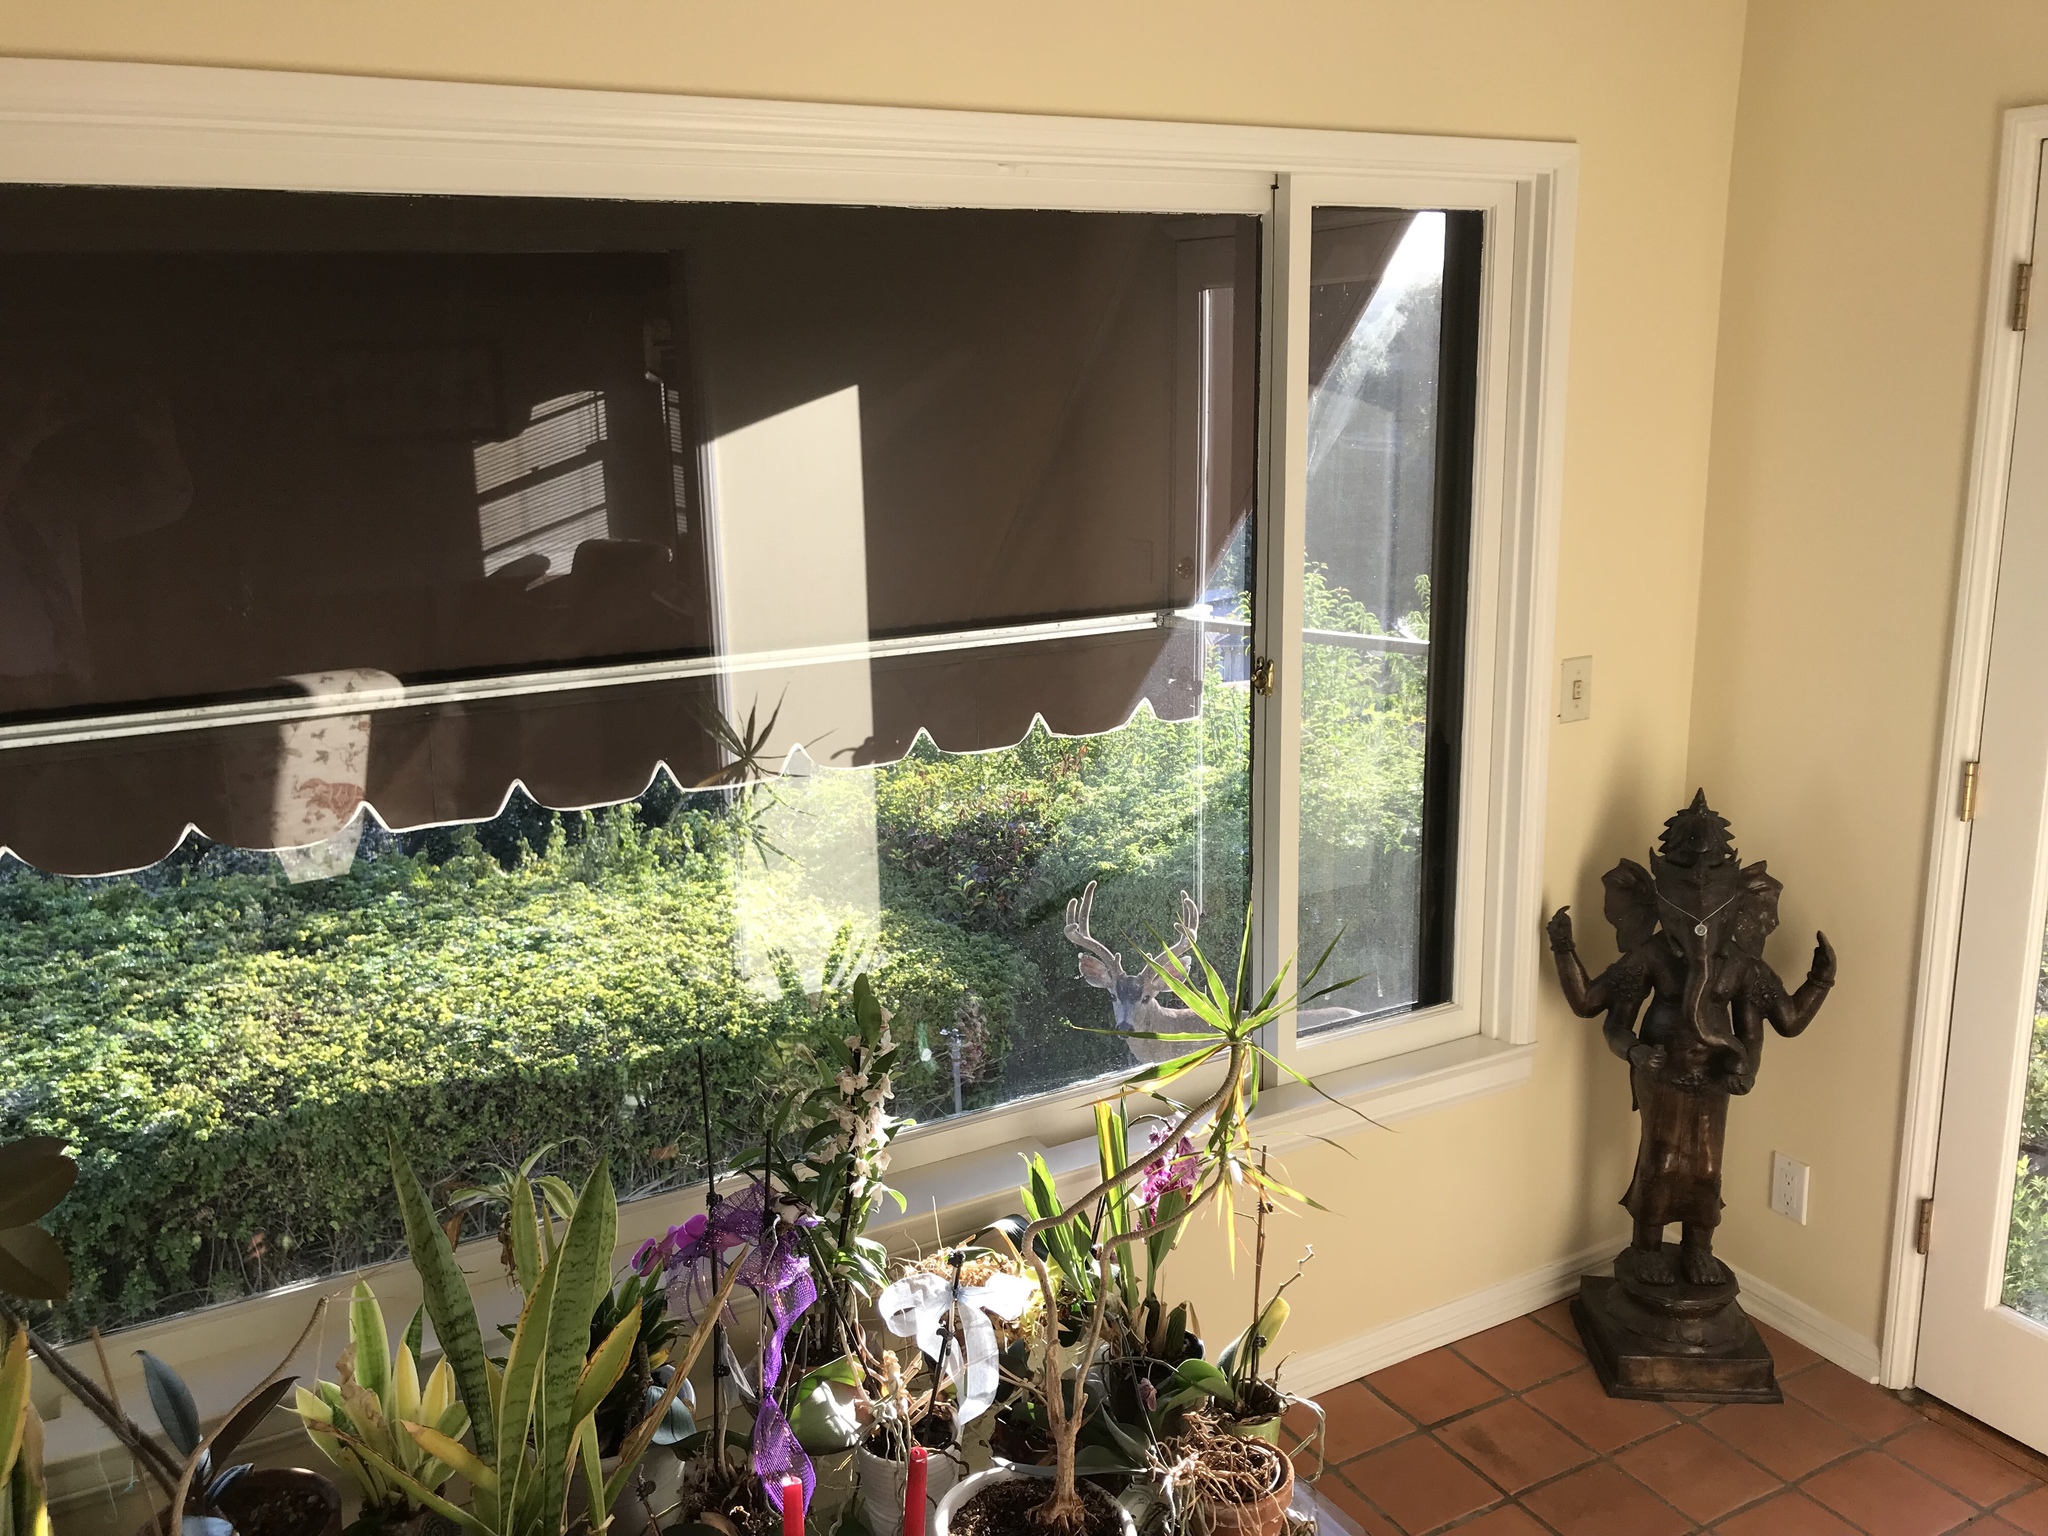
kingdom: Animalia
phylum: Chordata
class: Mammalia
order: Artiodactyla
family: Cervidae
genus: Odocoileus
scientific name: Odocoileus hemionus
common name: Mule deer
